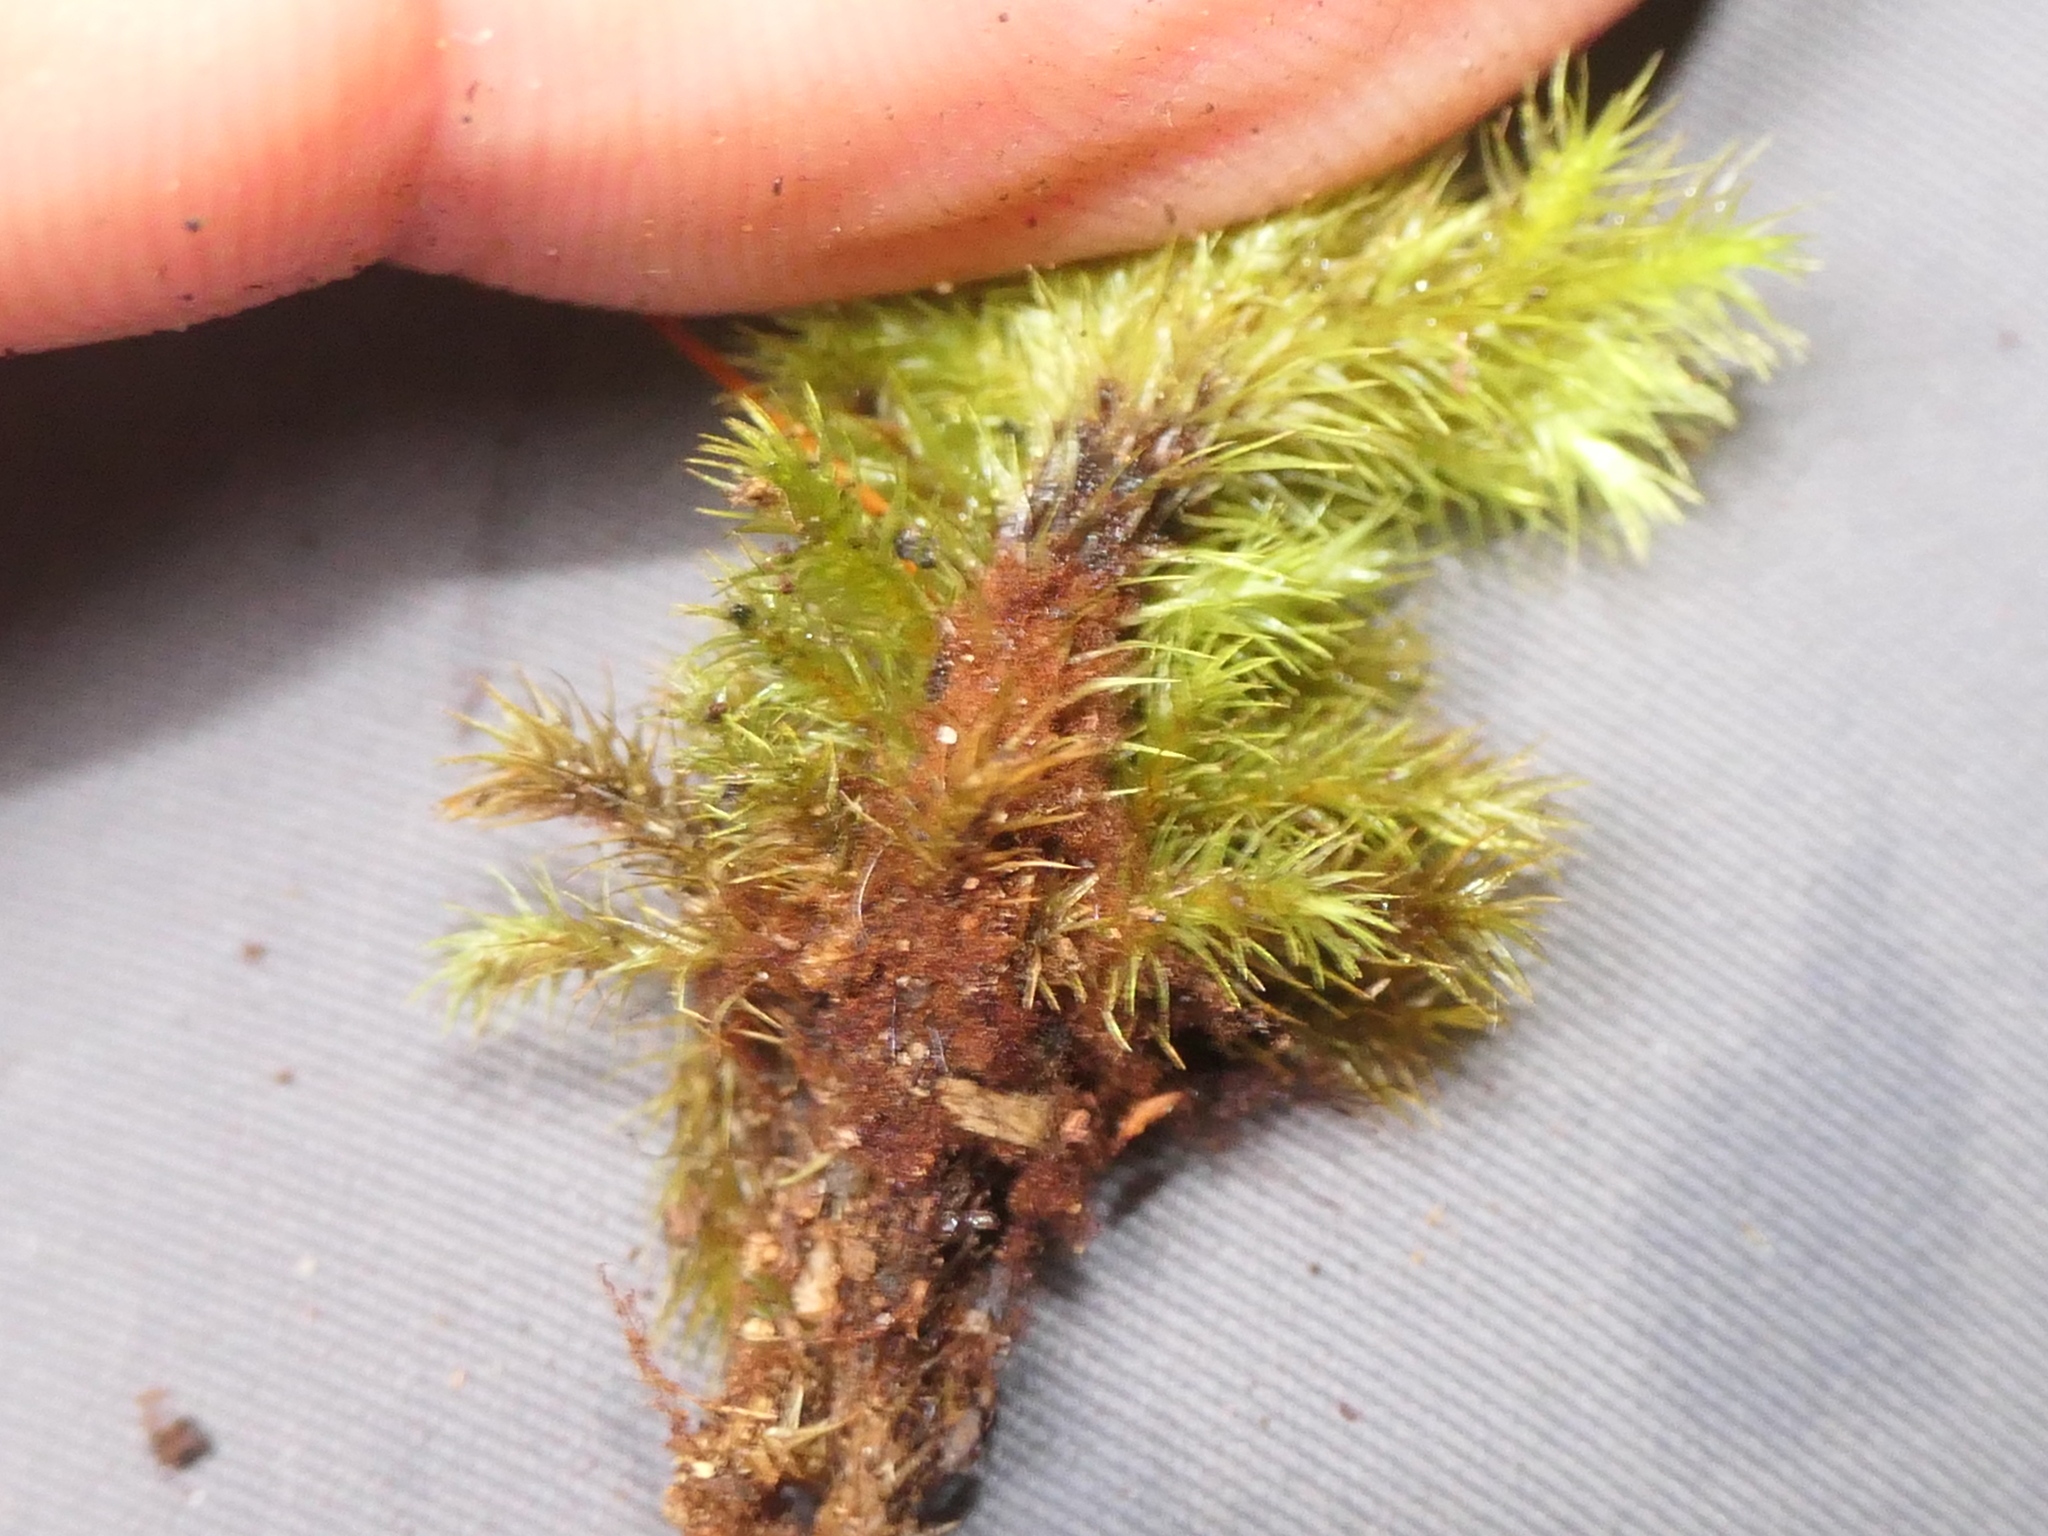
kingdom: Plantae
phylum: Bryophyta
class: Bryopsida
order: Hypnodendrales
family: Spiridentaceae
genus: Mniodendron
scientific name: Mniodendron colensoi
